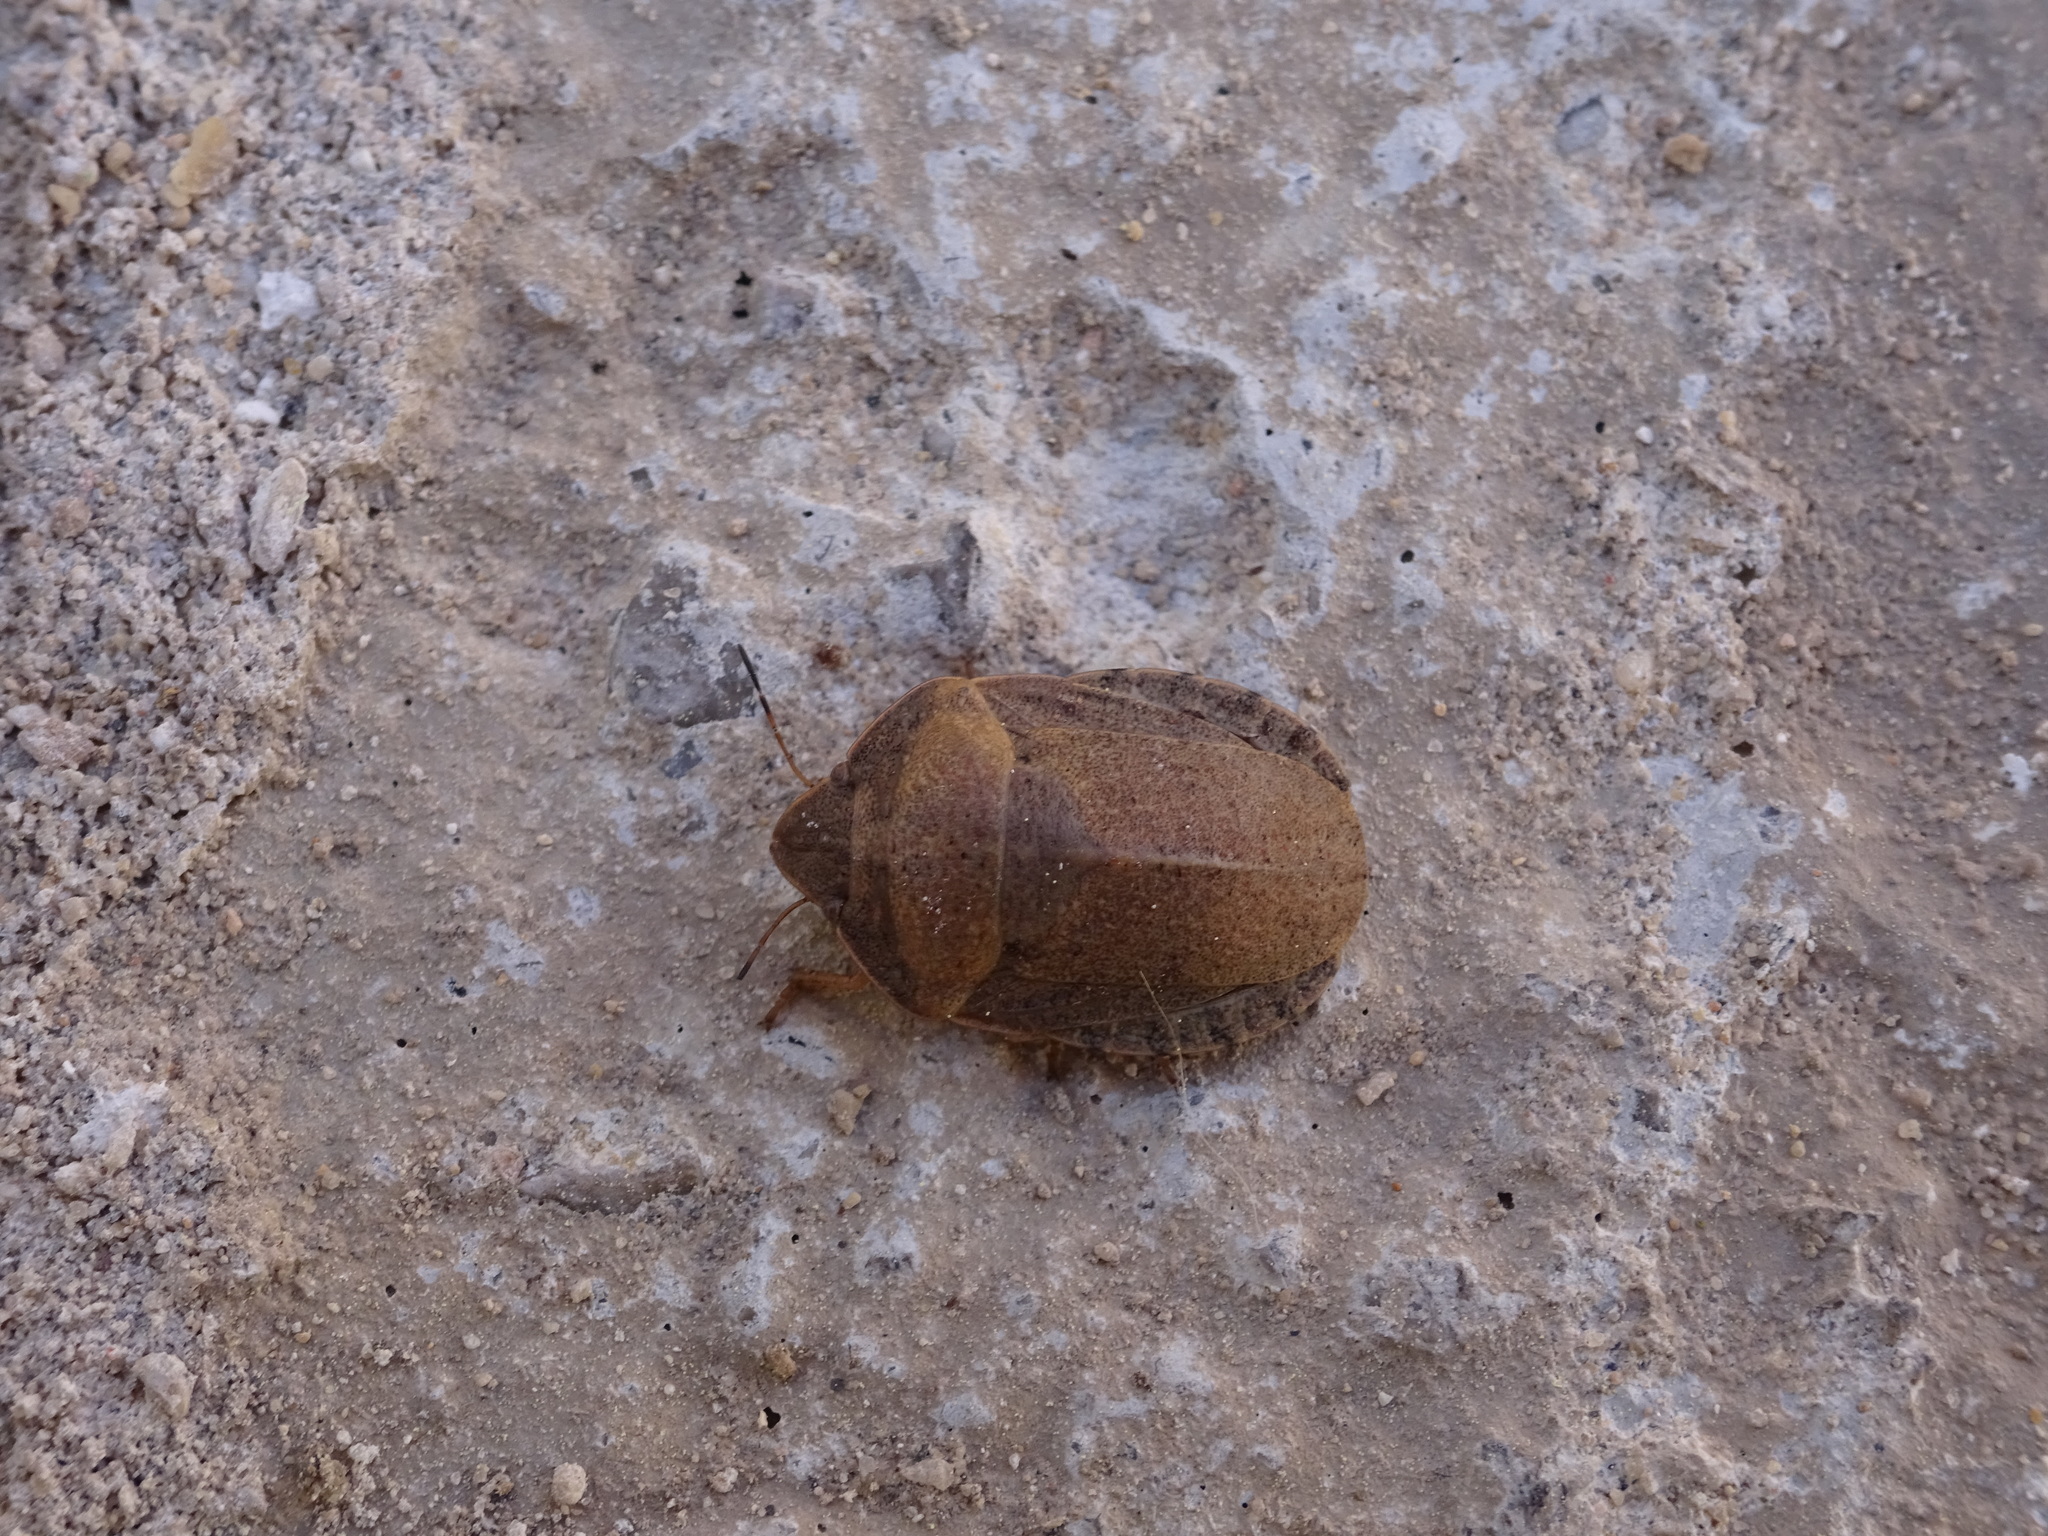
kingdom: Animalia
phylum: Arthropoda
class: Insecta
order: Hemiptera
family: Scutelleridae
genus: Eurygaster
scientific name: Eurygaster austriaca
